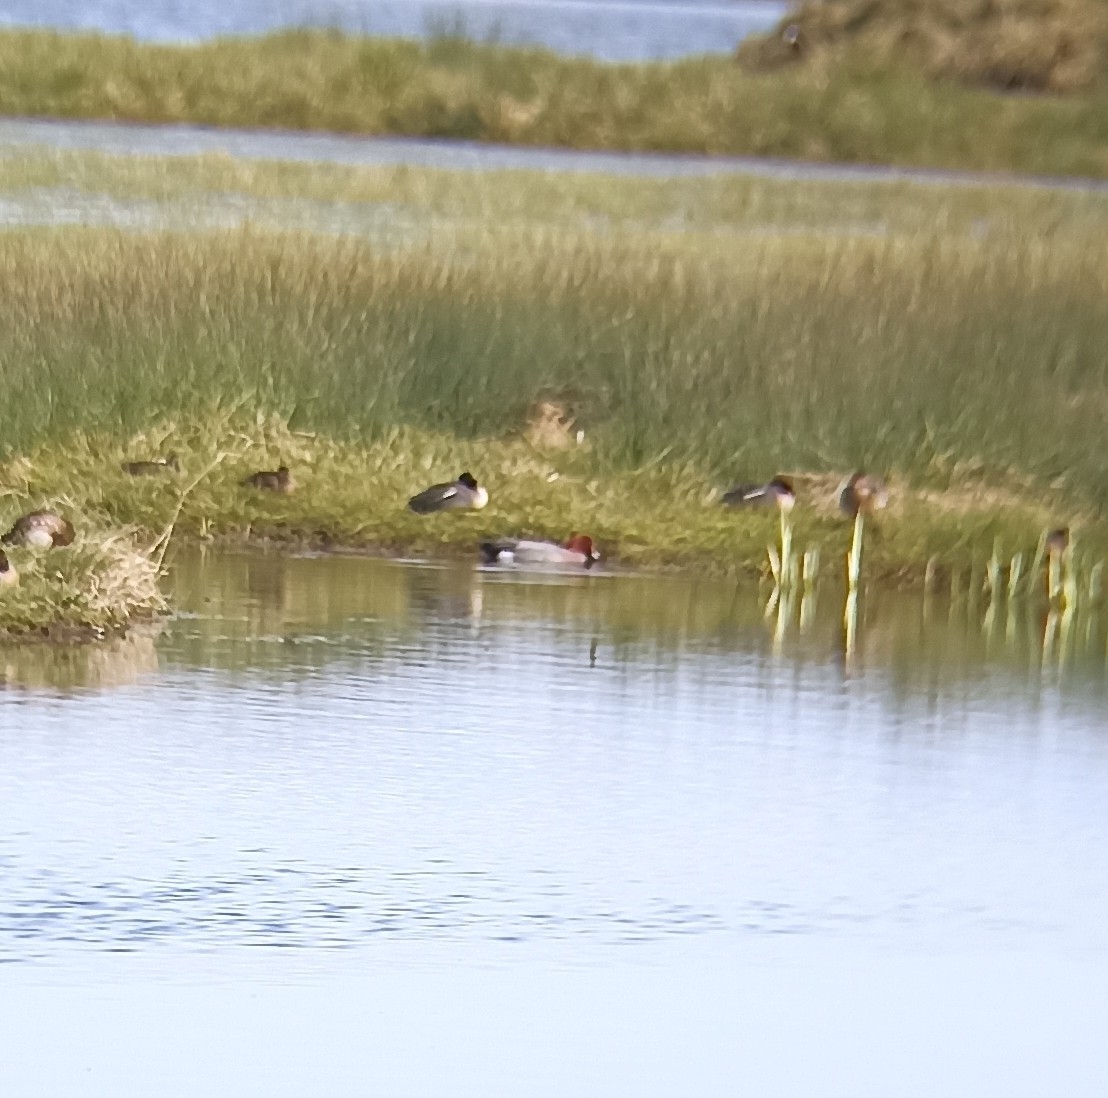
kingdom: Animalia
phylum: Chordata
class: Aves
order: Anseriformes
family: Anatidae
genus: Mareca
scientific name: Mareca penelope
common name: Eurasian wigeon
